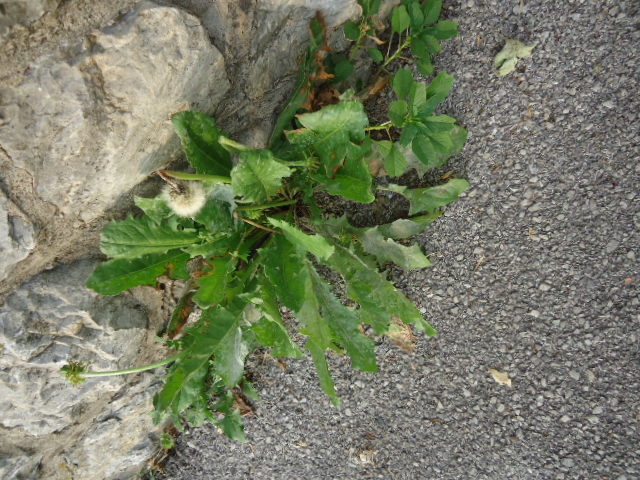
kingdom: Plantae
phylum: Tracheophyta
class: Magnoliopsida
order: Asterales
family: Asteraceae
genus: Taraxacum
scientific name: Taraxacum officinale
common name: Common dandelion
